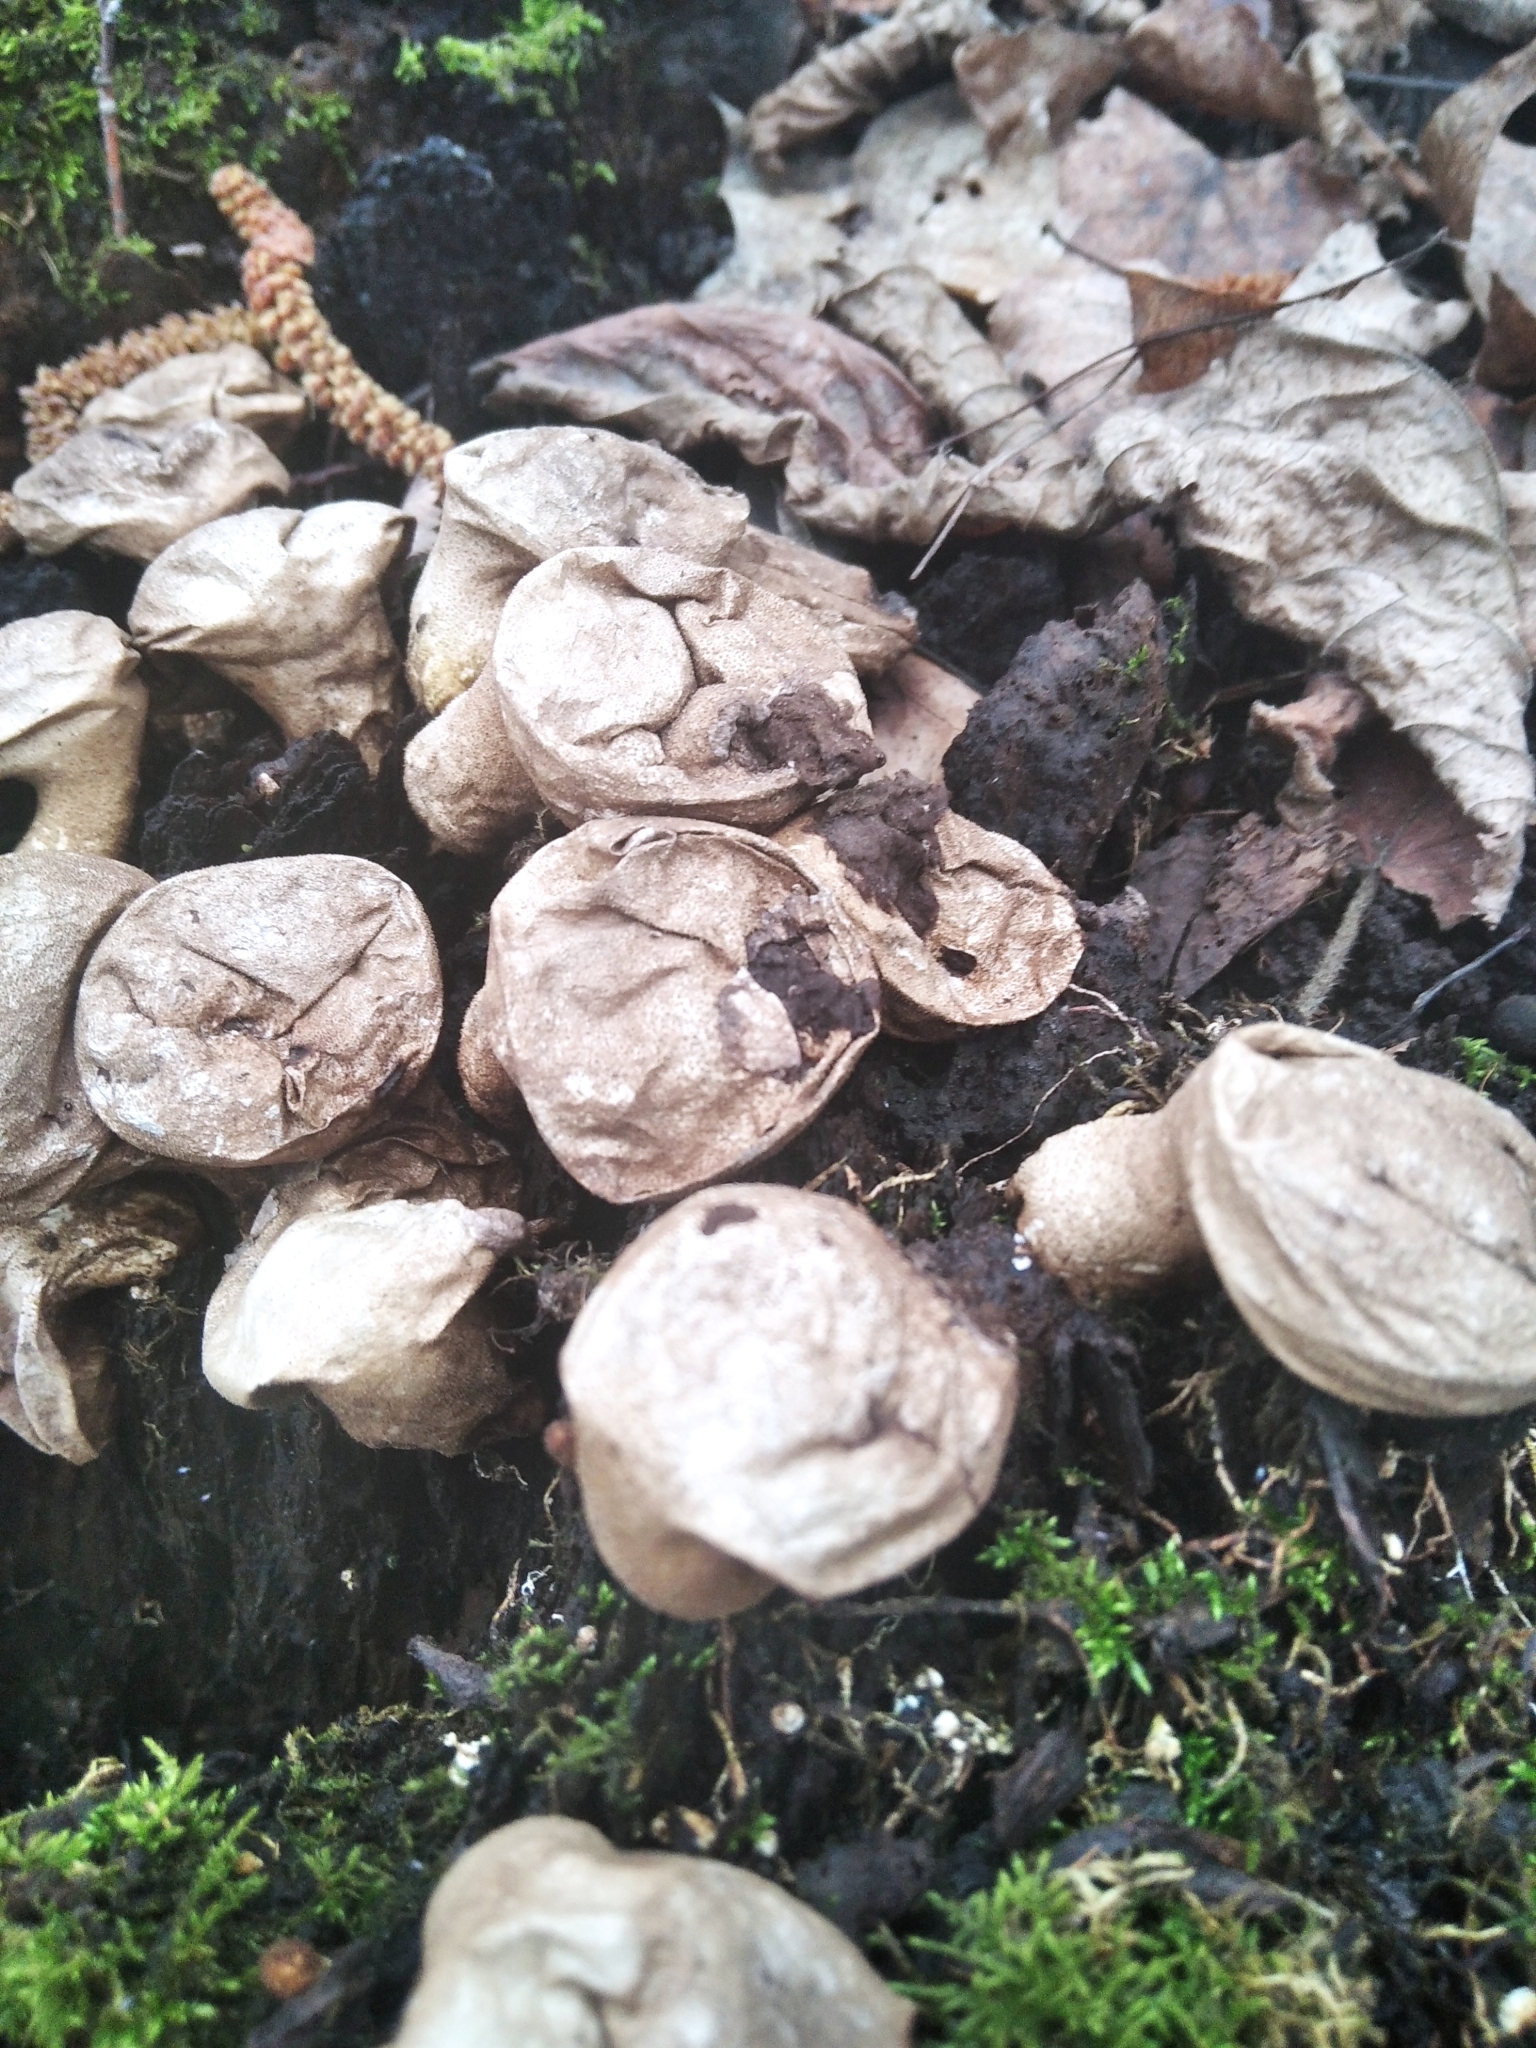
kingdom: Fungi
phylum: Basidiomycota
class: Agaricomycetes
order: Agaricales
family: Lycoperdaceae
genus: Apioperdon
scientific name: Apioperdon pyriforme
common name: Pear-shaped puffball
